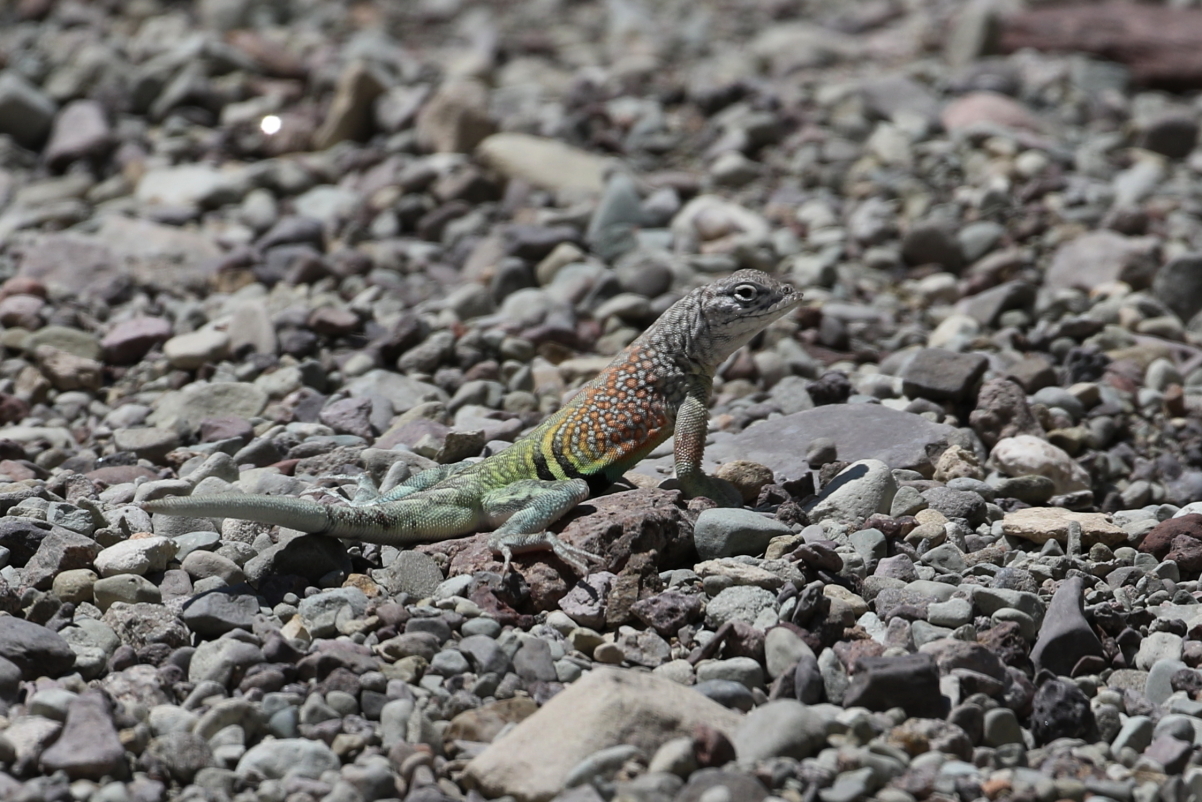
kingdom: Animalia
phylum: Chordata
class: Squamata
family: Phrynosomatidae
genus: Cophosaurus
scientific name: Cophosaurus texanus
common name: Greater earless lizard
